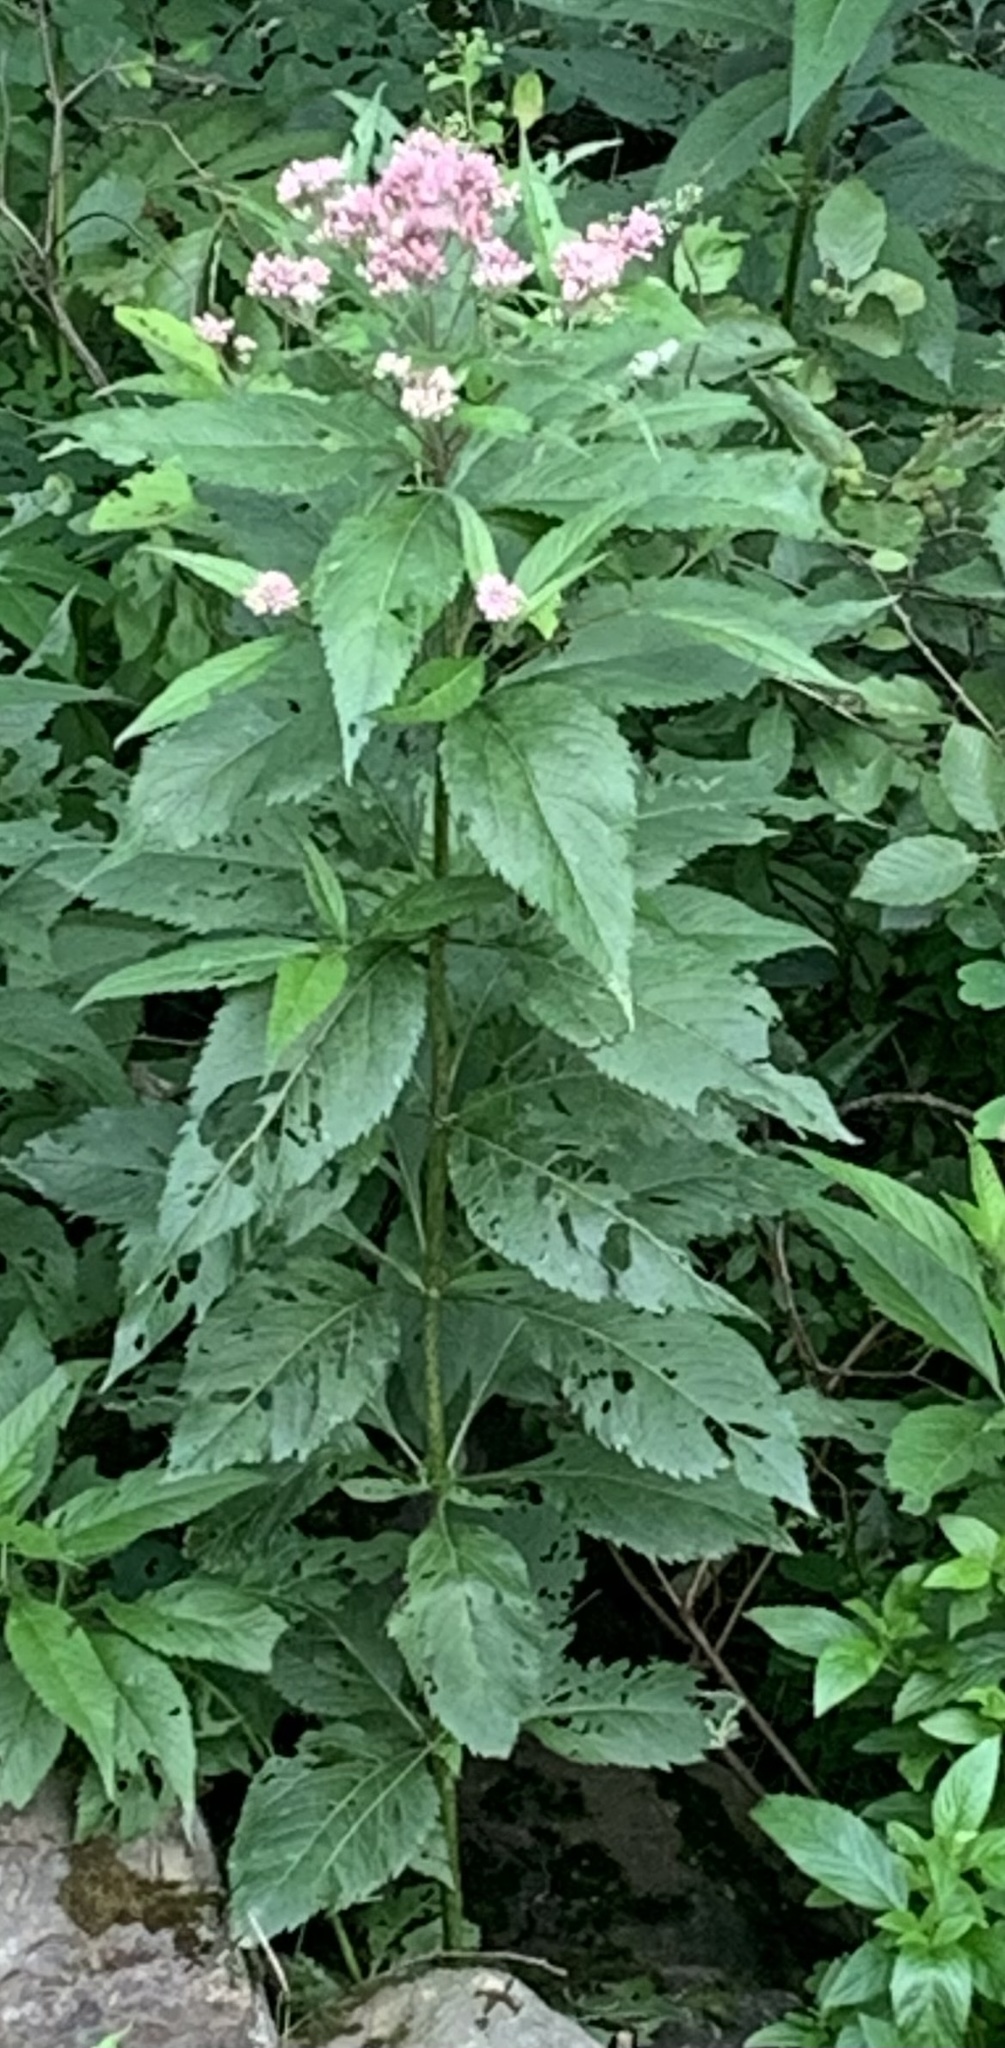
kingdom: Plantae
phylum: Tracheophyta
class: Magnoliopsida
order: Asterales
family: Asteraceae
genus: Eutrochium
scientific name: Eutrochium maculatum
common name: Spotted joe pye weed
